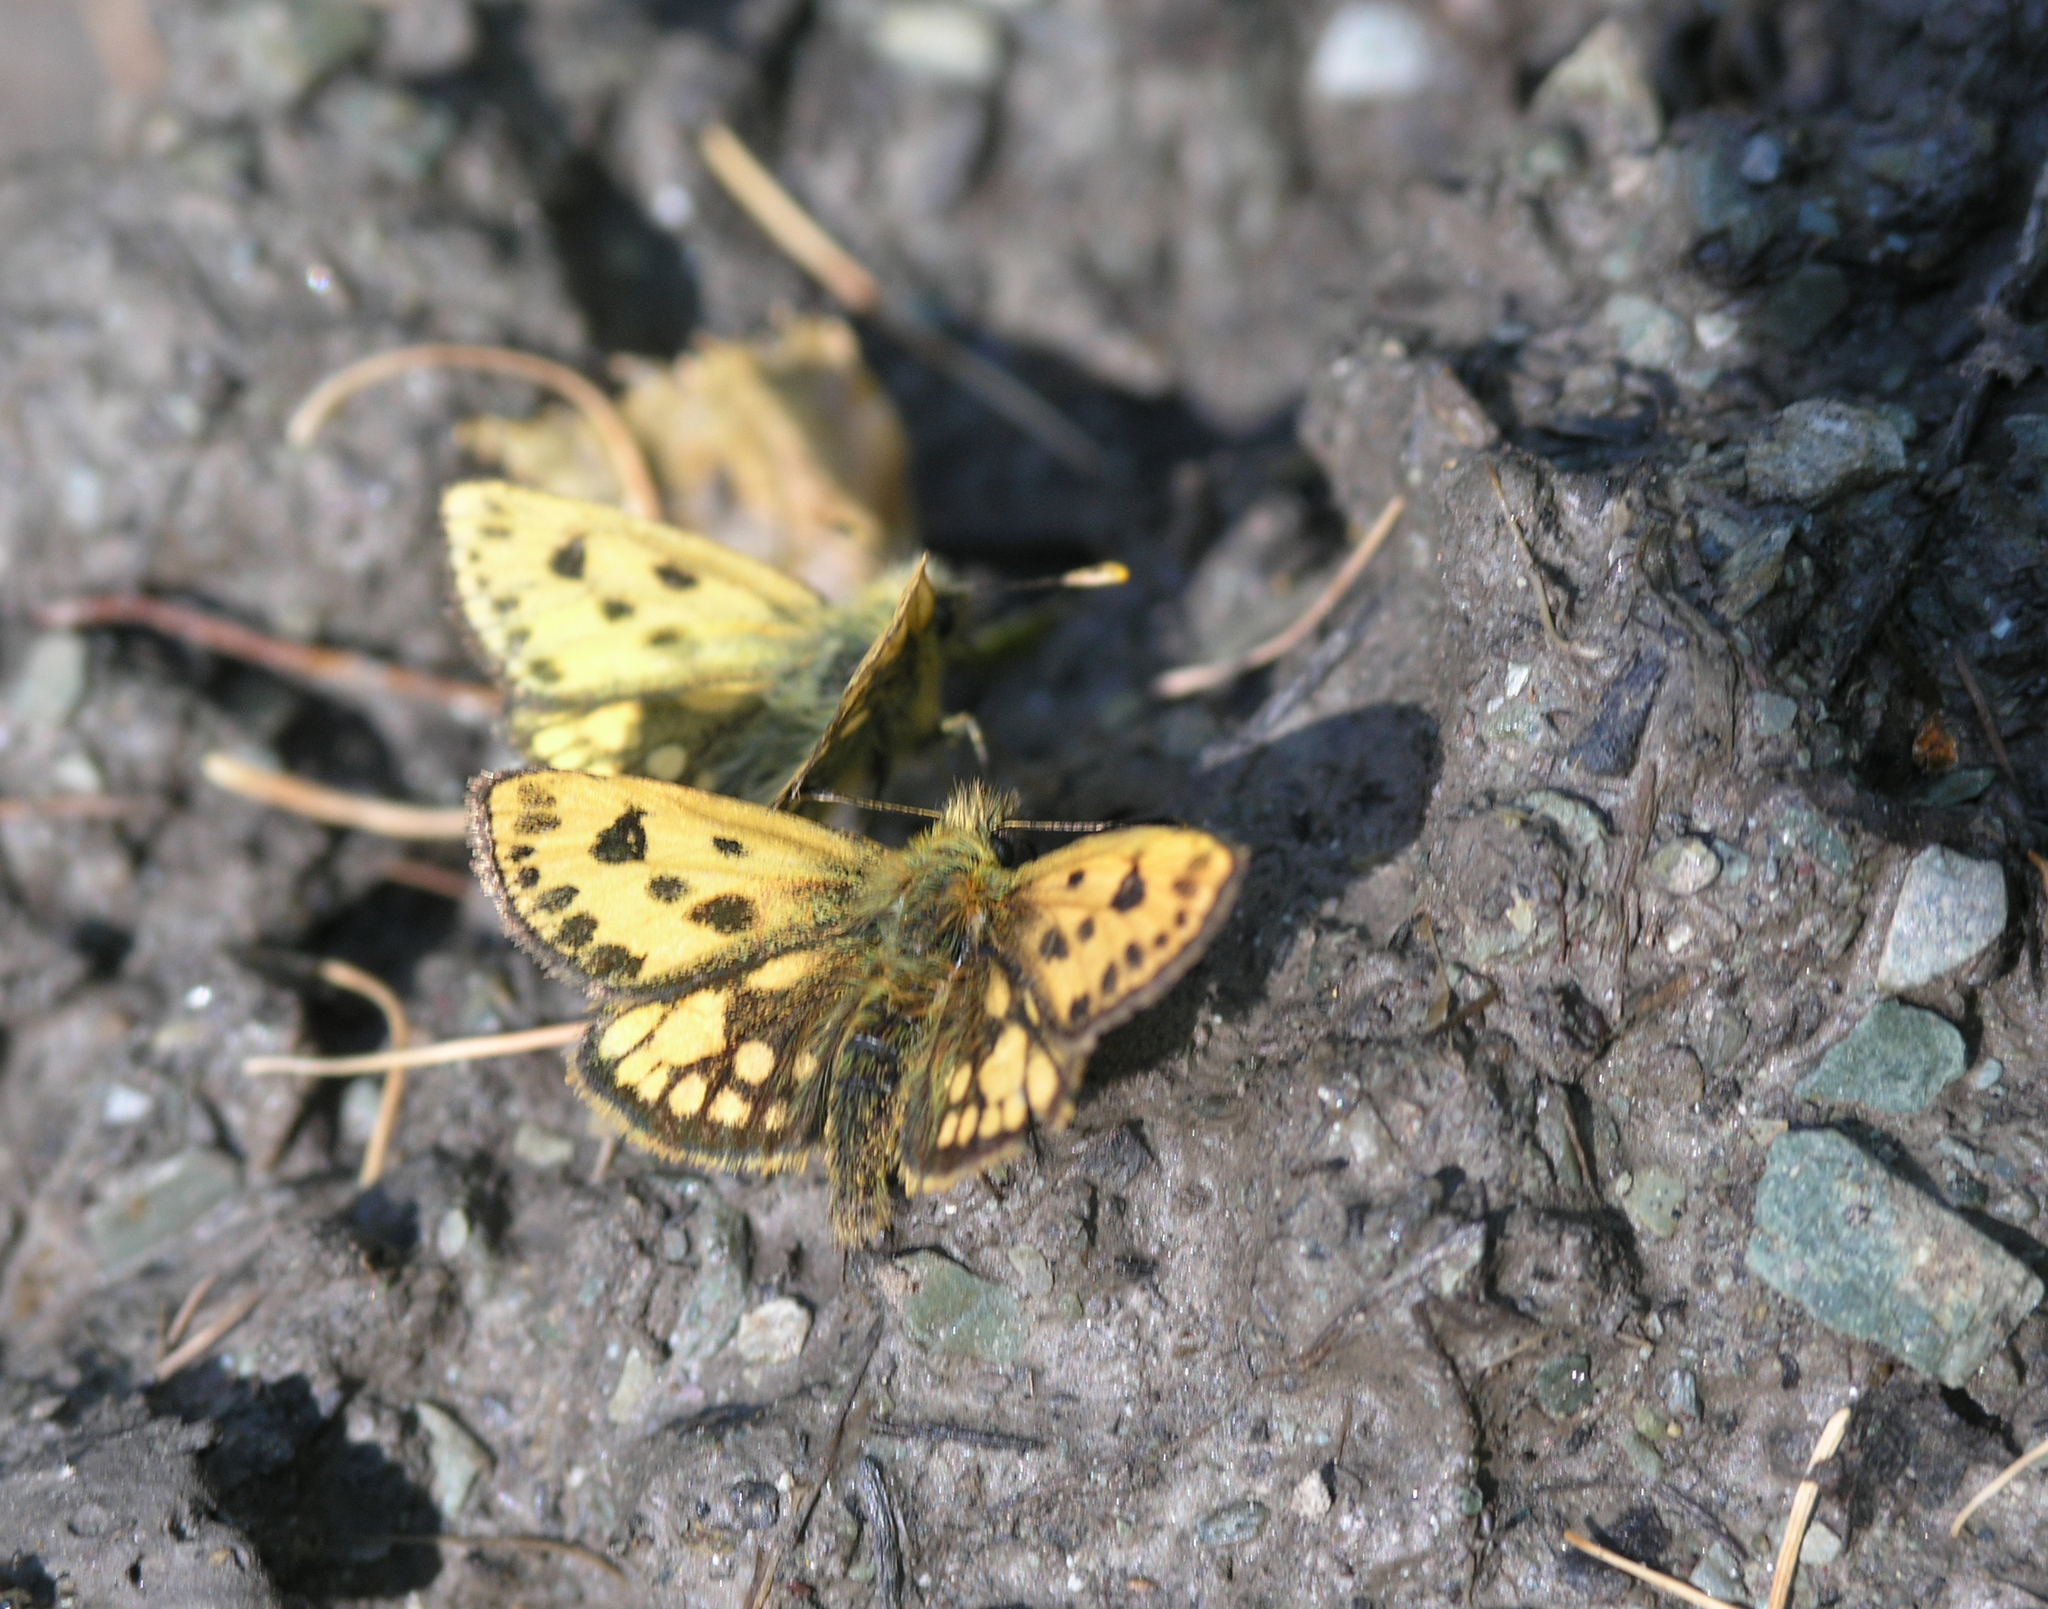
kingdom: Animalia
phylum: Arthropoda
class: Insecta
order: Lepidoptera
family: Hesperiidae
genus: Carterocephalus
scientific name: Carterocephalus silvicola
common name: Northern chequered skipper
